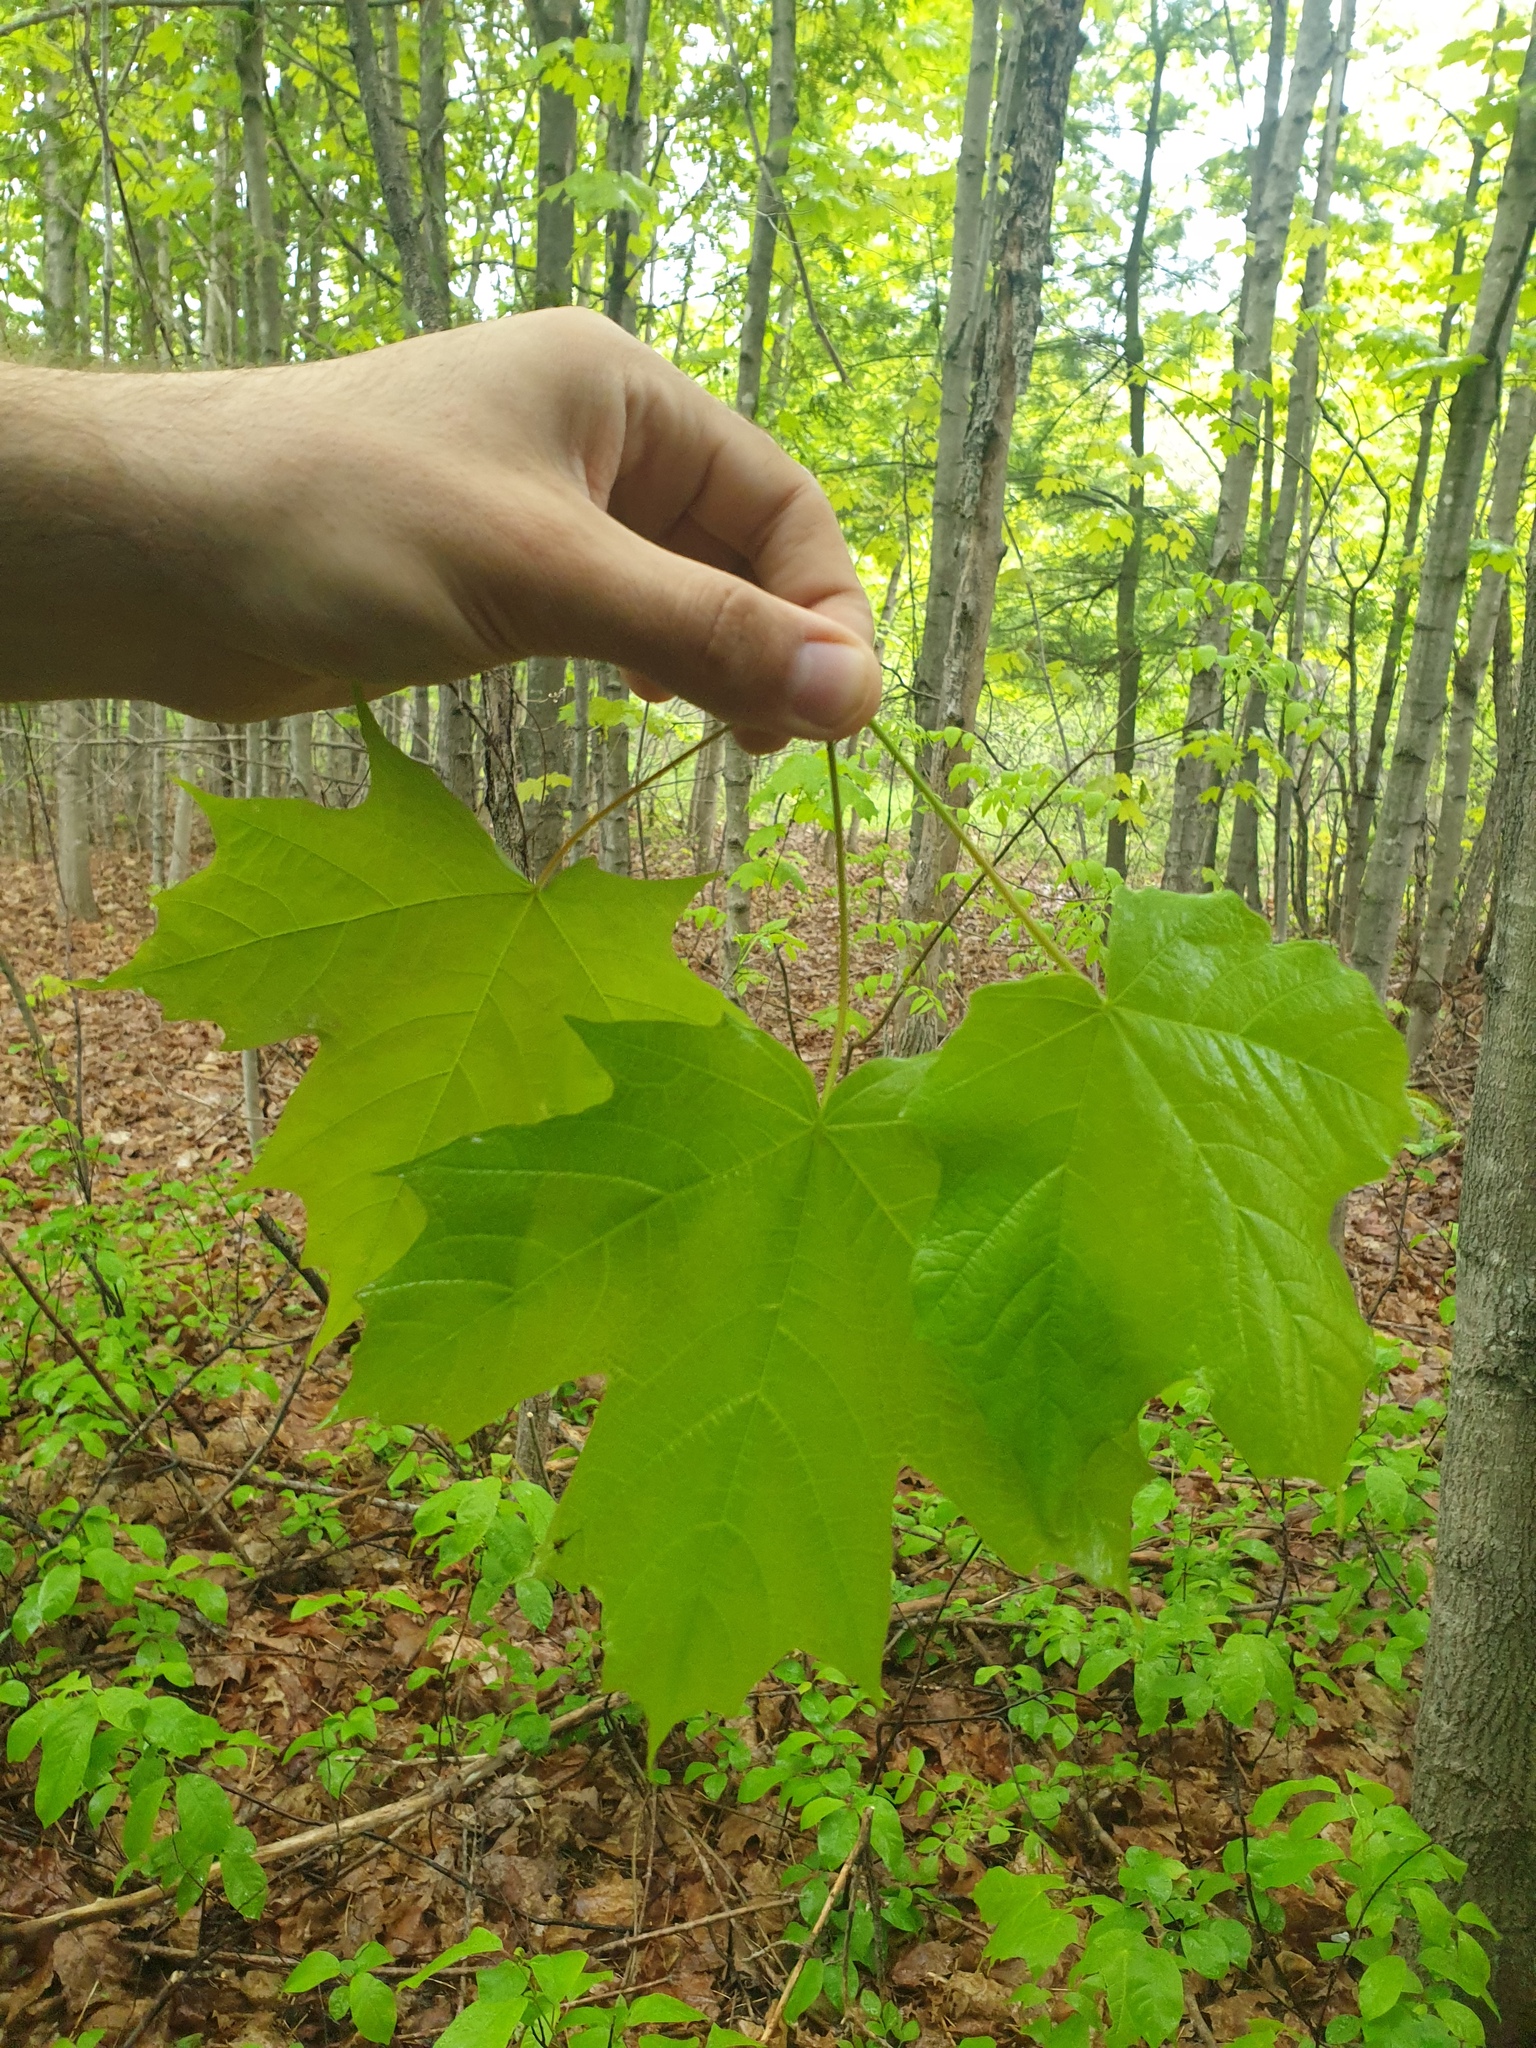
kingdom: Plantae
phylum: Tracheophyta
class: Magnoliopsida
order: Sapindales
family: Sapindaceae
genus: Acer
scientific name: Acer
